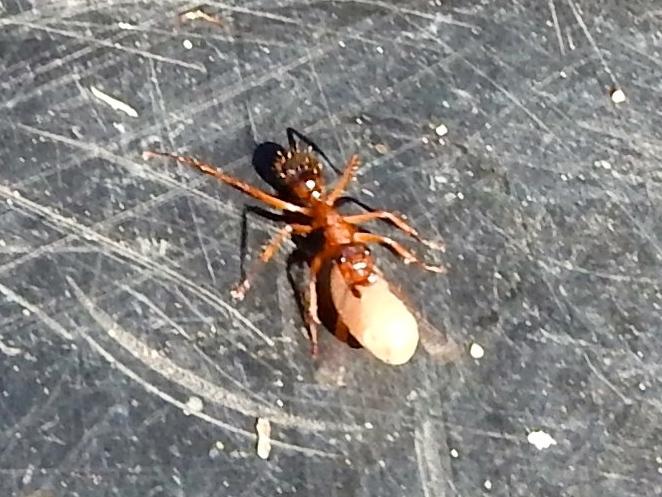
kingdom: Animalia
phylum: Arthropoda
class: Insecta
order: Hymenoptera
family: Formicidae
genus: Camponotus
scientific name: Camponotus
